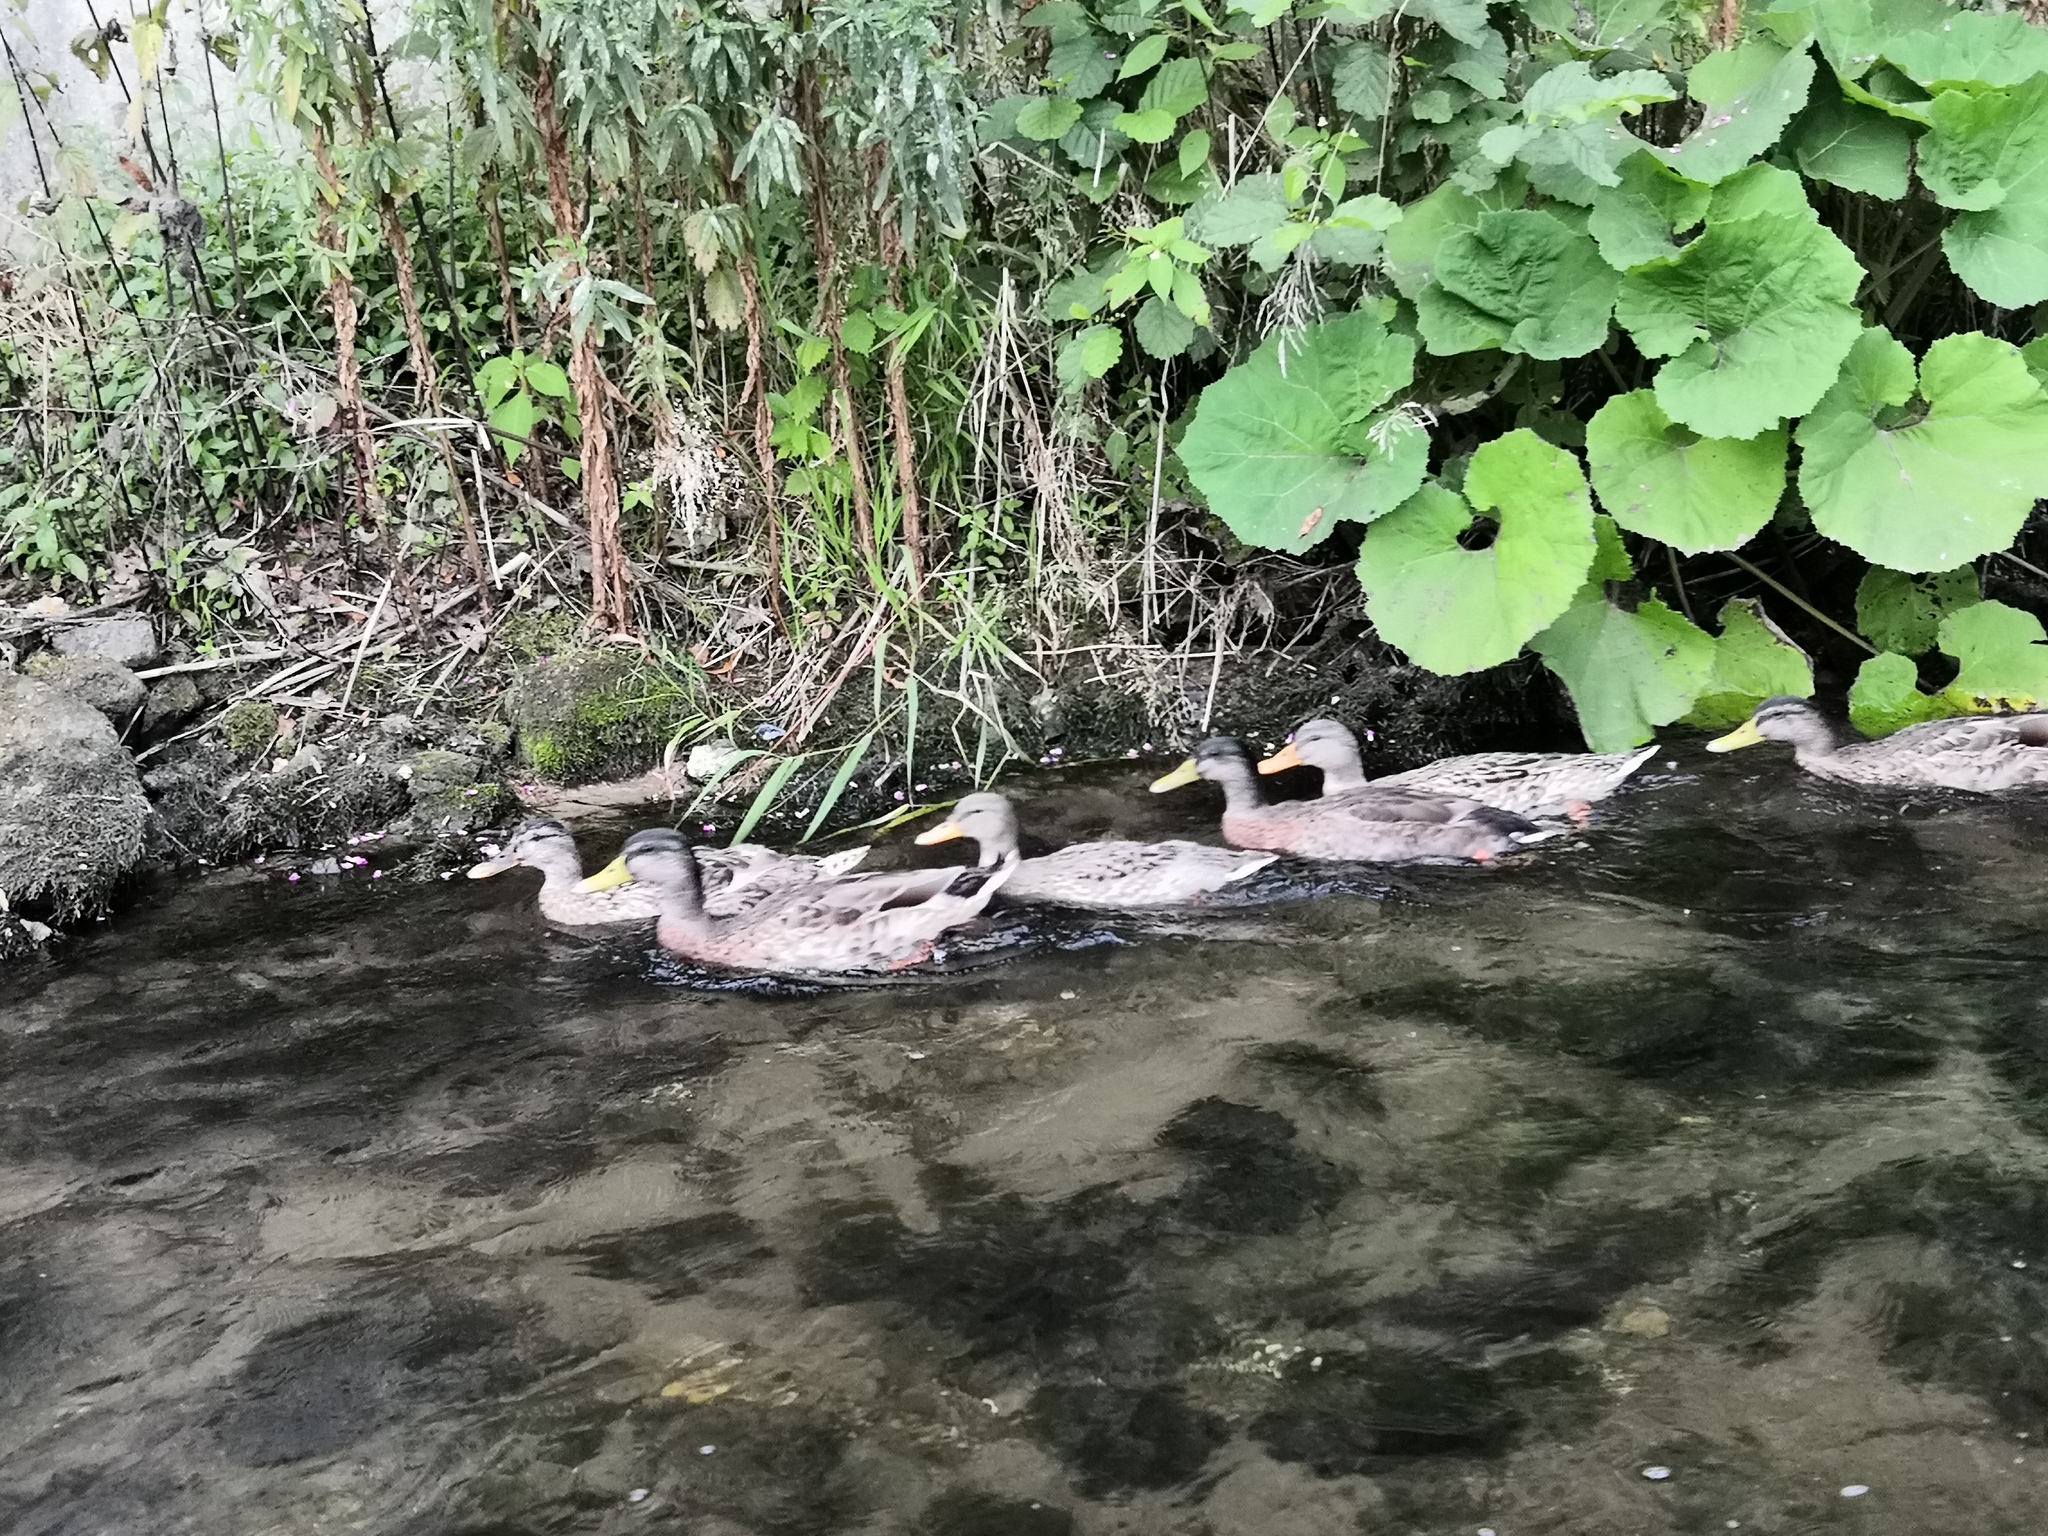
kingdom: Animalia
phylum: Chordata
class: Aves
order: Anseriformes
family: Anatidae
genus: Anas
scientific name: Anas platyrhynchos
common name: Mallard
